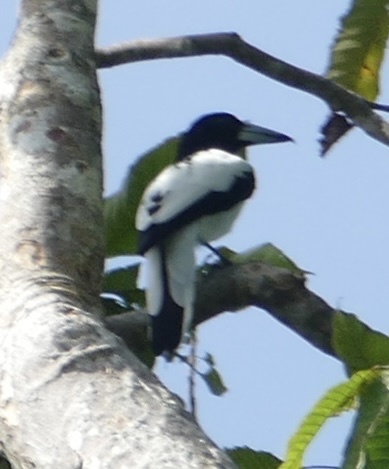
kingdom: Animalia
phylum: Chordata
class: Aves
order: Passeriformes
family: Cracticidae
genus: Cracticus
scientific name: Cracticus cassicus
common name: Hooded butcherbird
